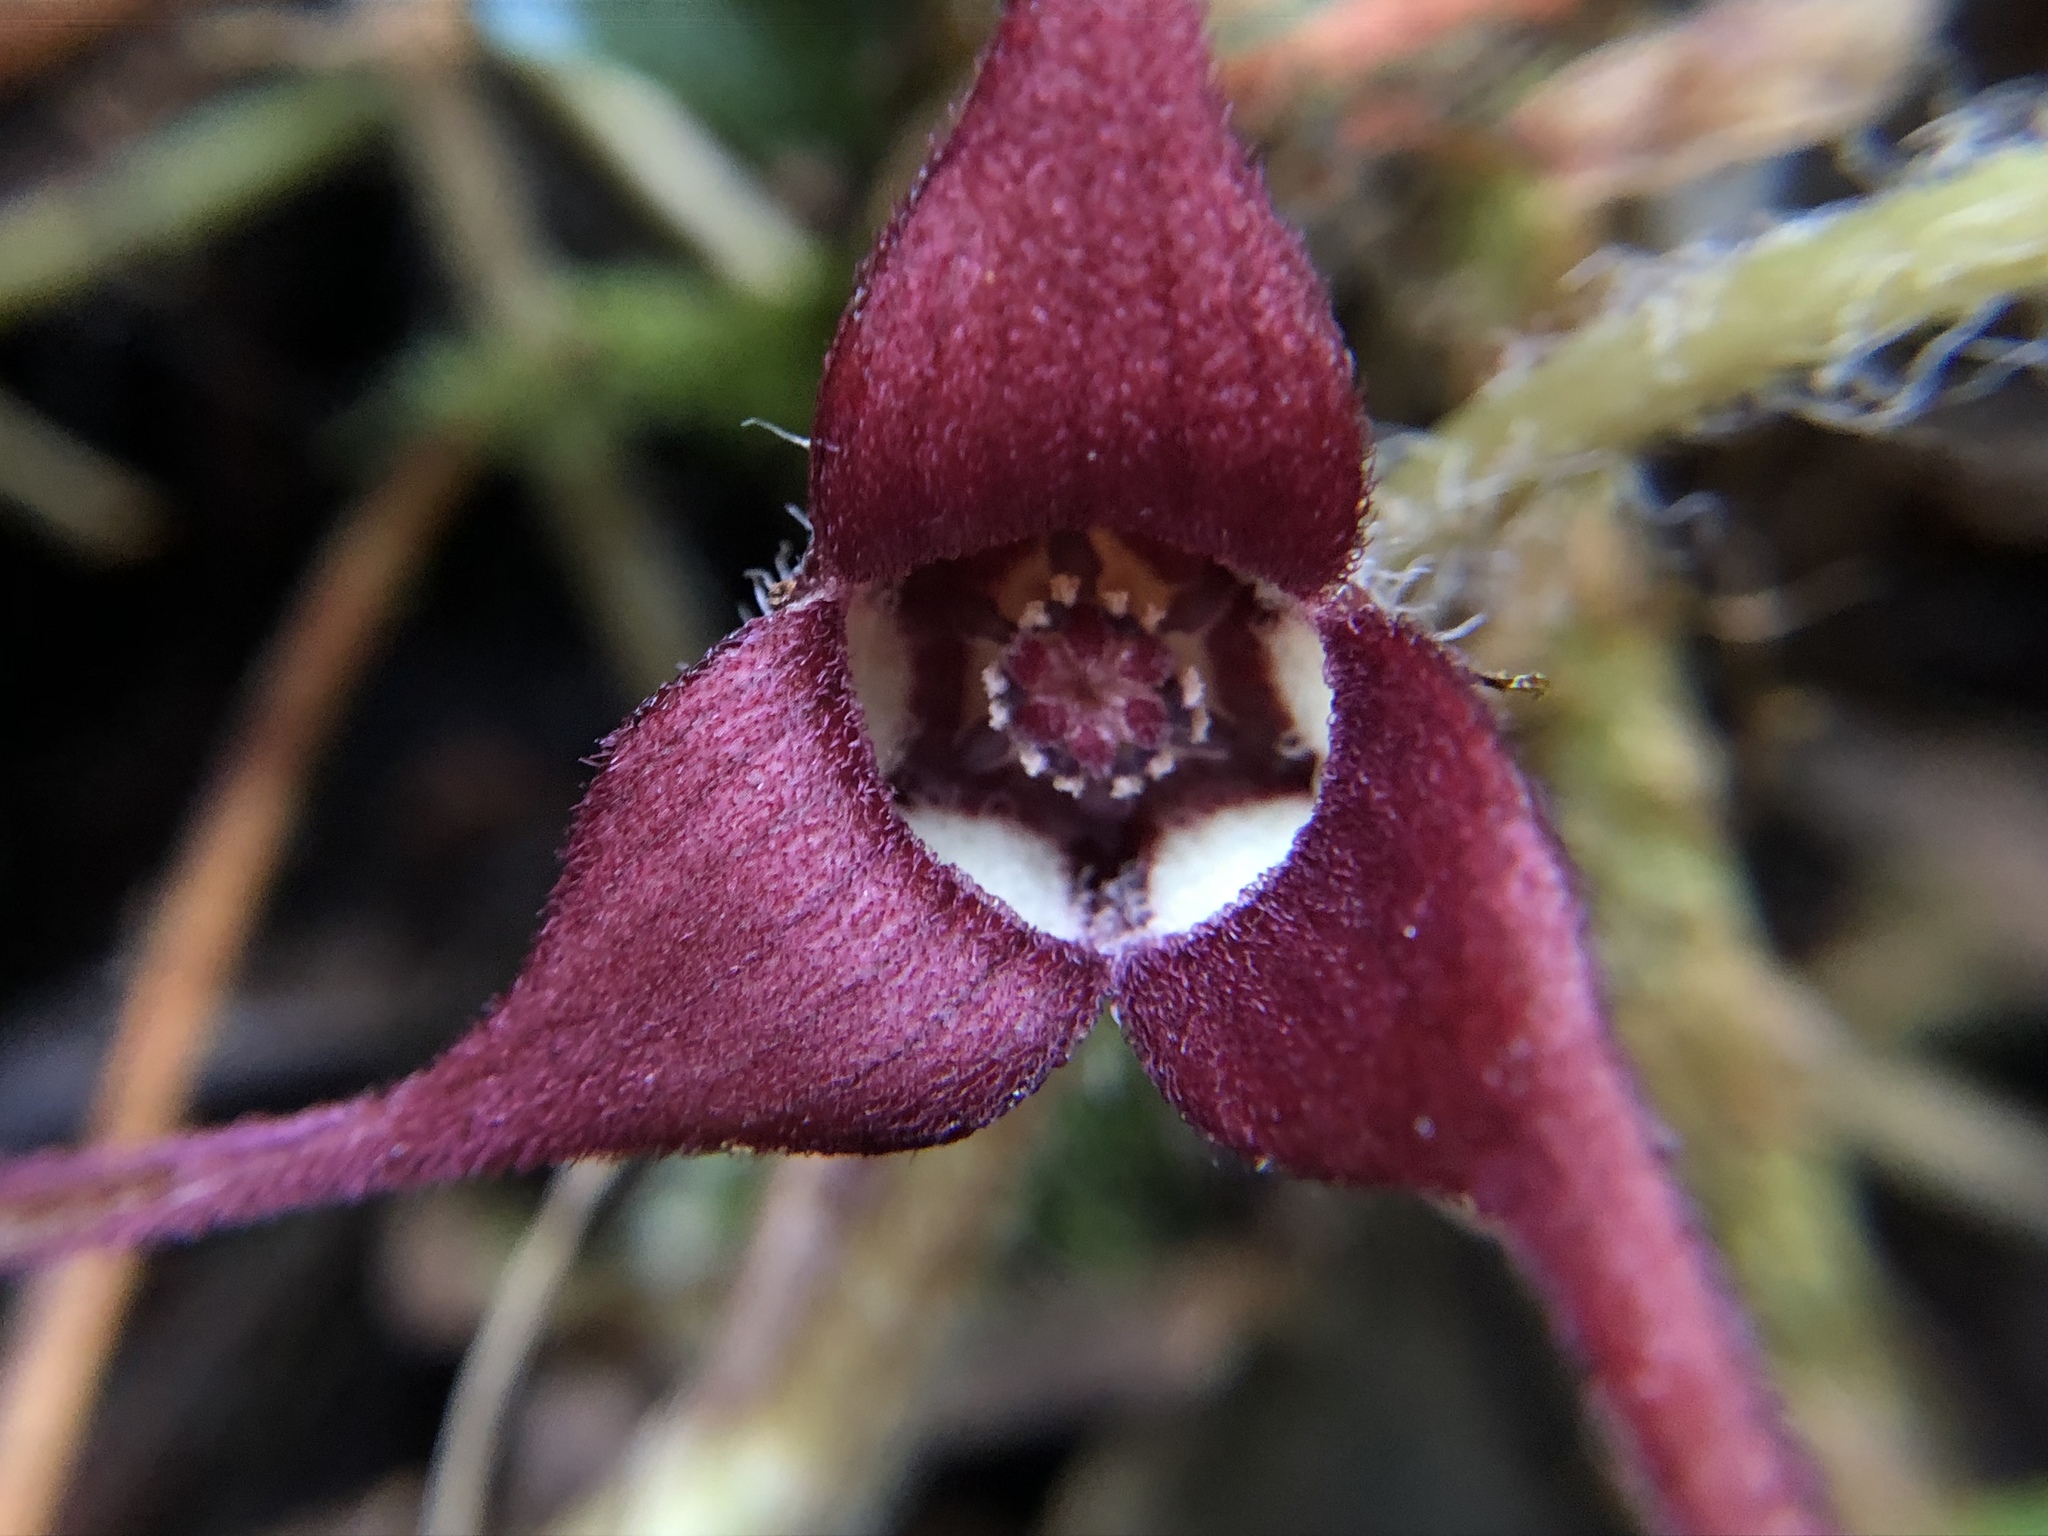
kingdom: Plantae
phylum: Tracheophyta
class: Magnoliopsida
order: Piperales
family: Aristolochiaceae
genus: Asarum
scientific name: Asarum caudatum
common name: Wild ginger
